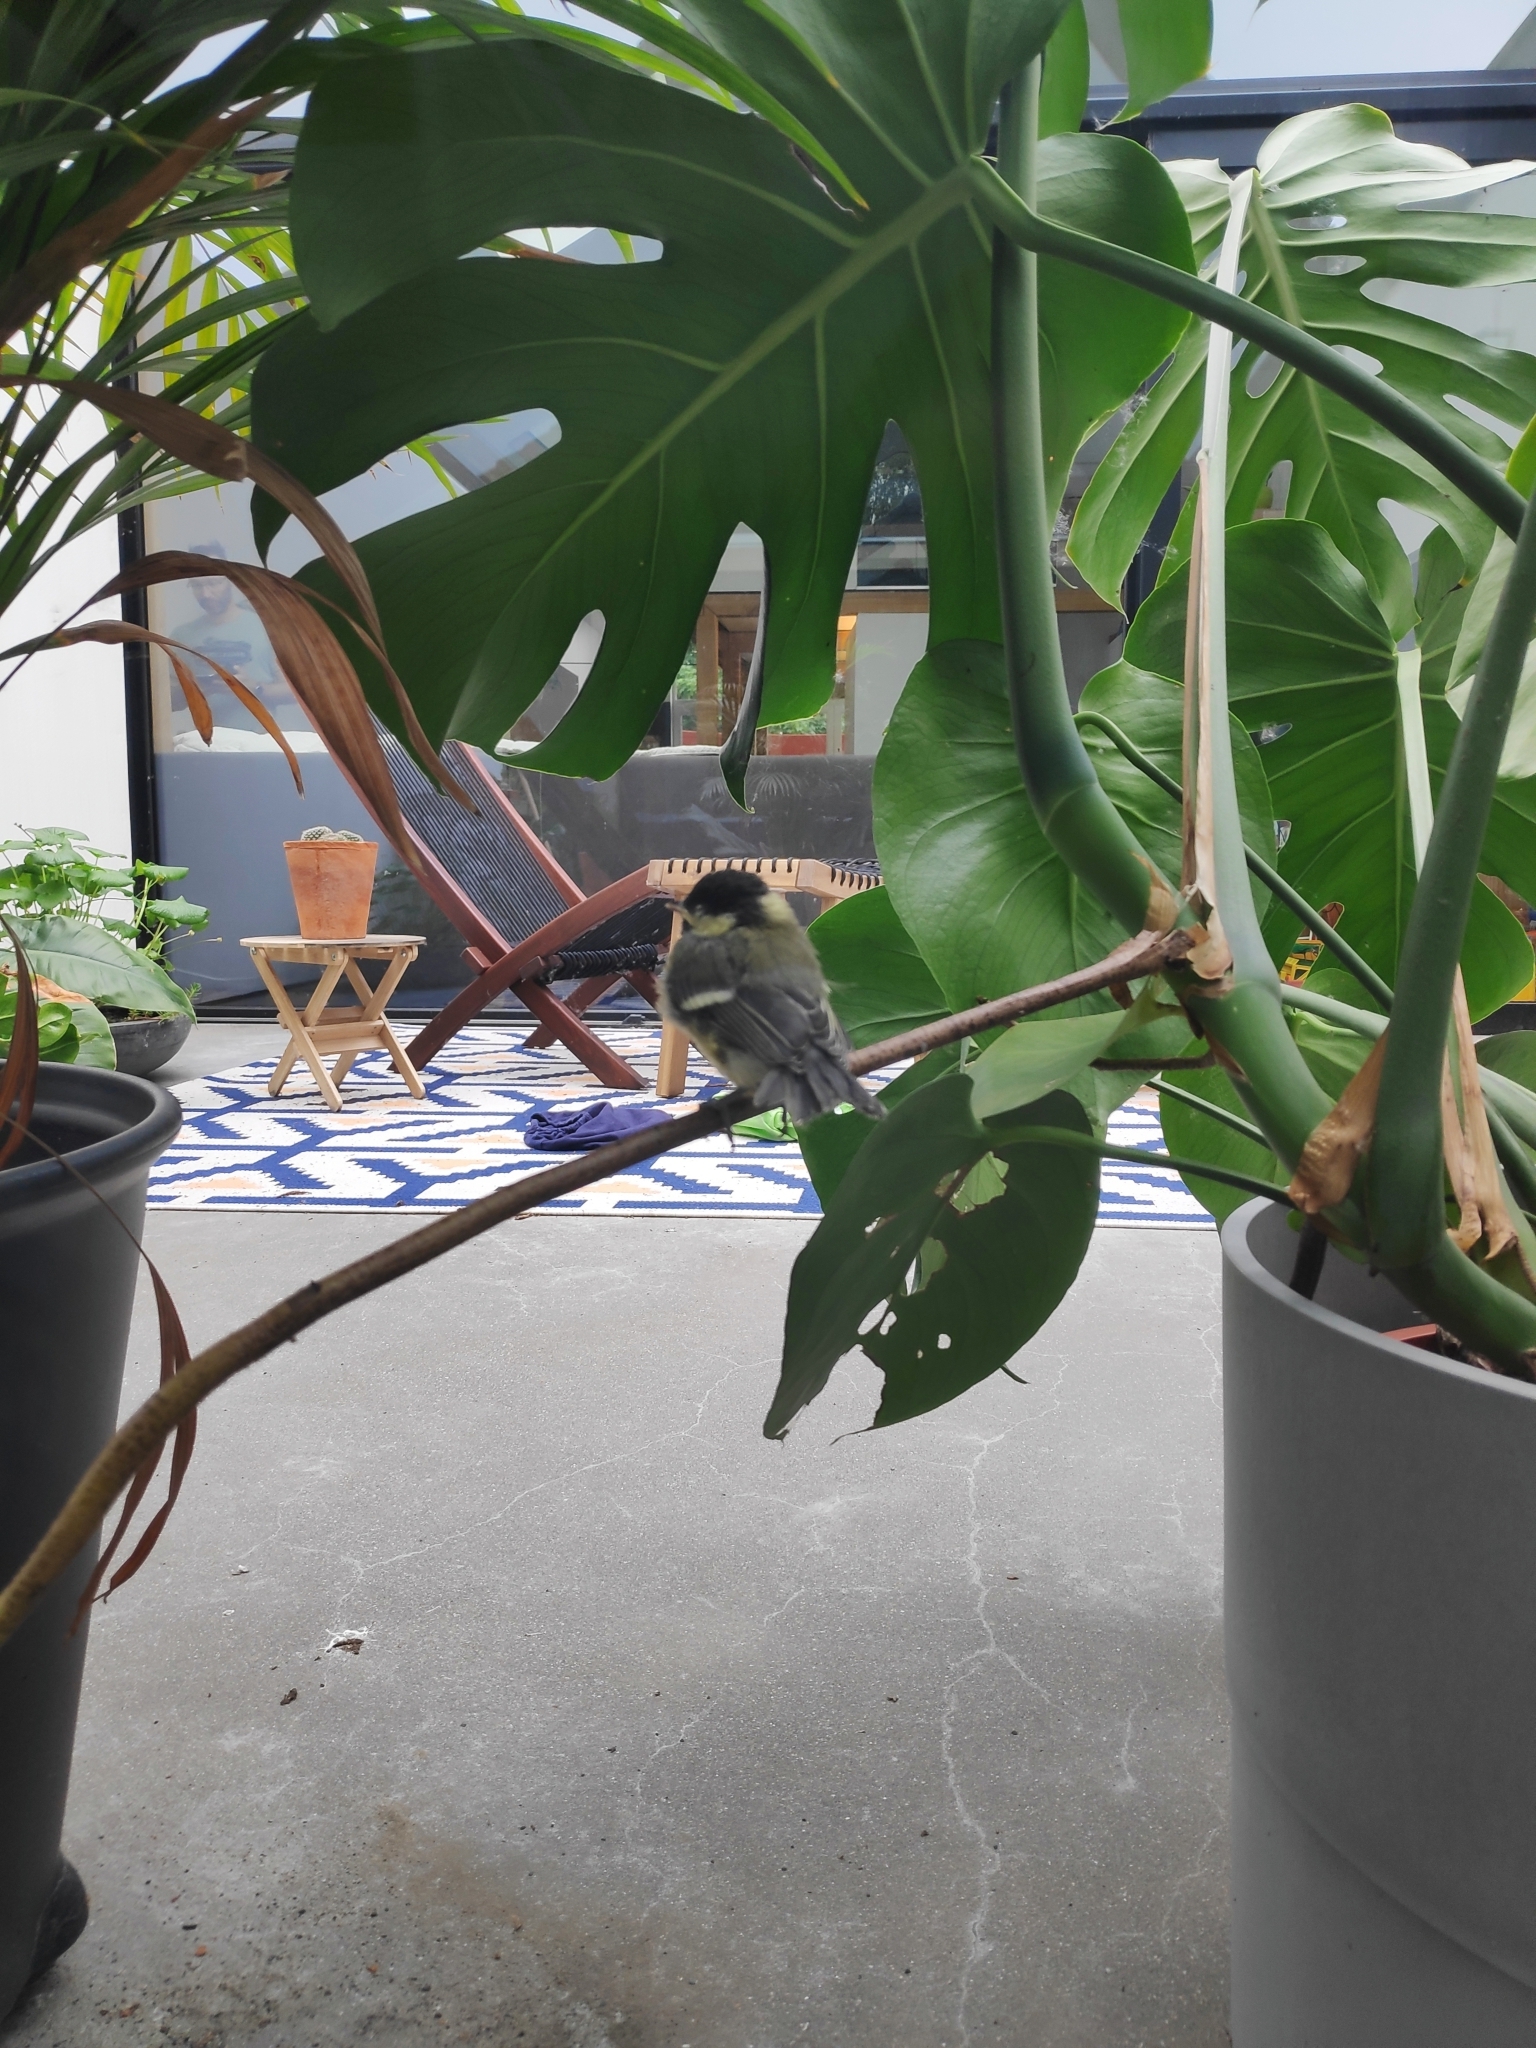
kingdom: Animalia
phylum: Chordata
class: Aves
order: Passeriformes
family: Paridae
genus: Parus
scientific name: Parus major
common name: Great tit
